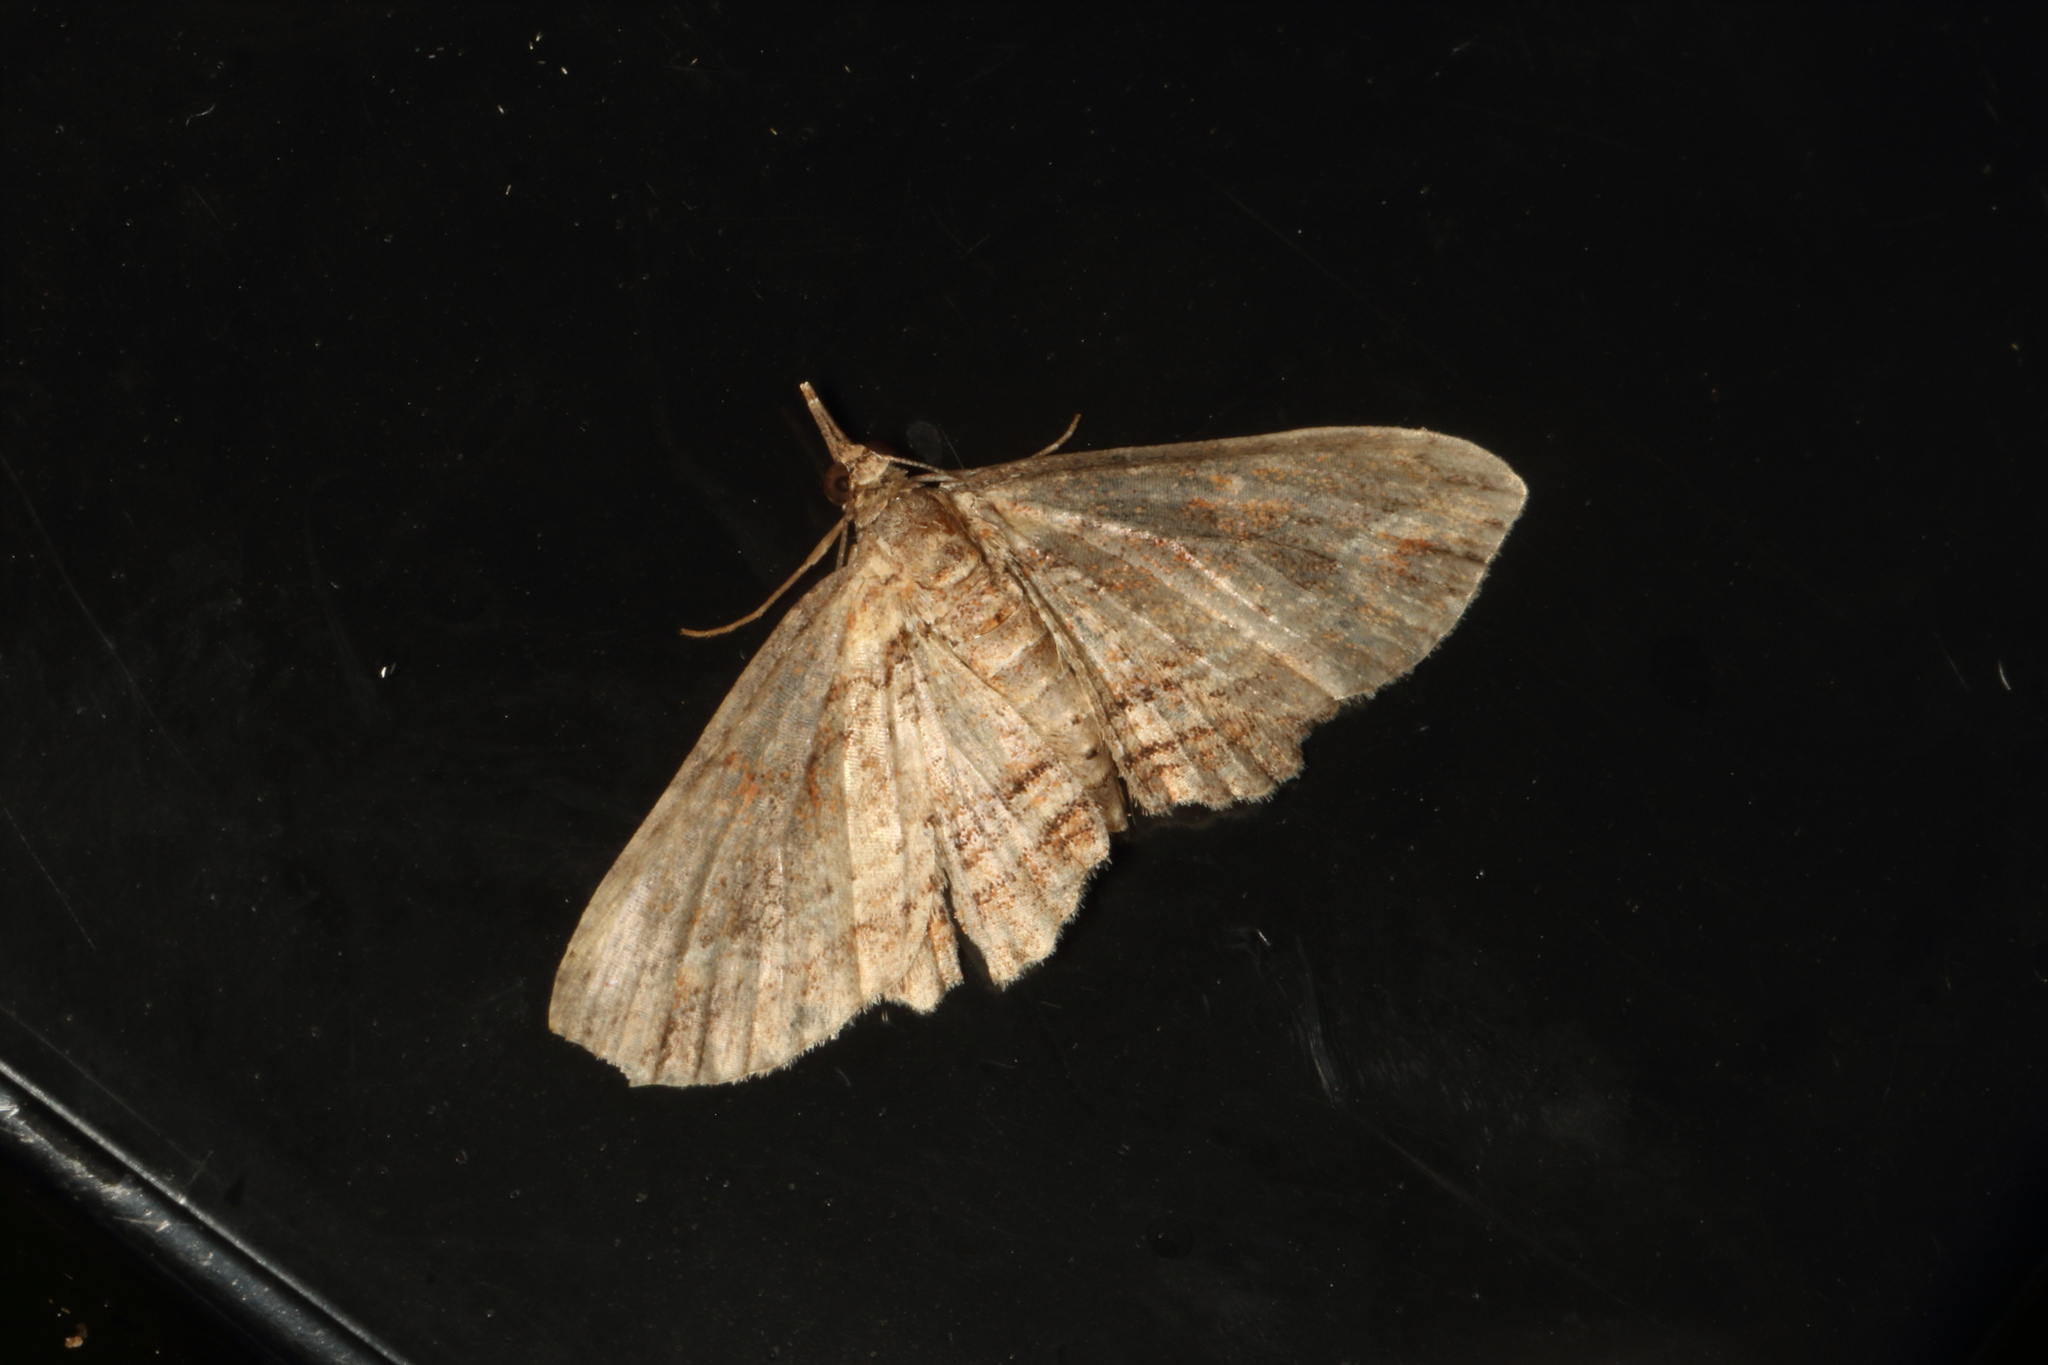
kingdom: Animalia
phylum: Arthropoda
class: Insecta
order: Lepidoptera
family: Geometridae
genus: Chloroclystis
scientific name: Chloroclystis filata
